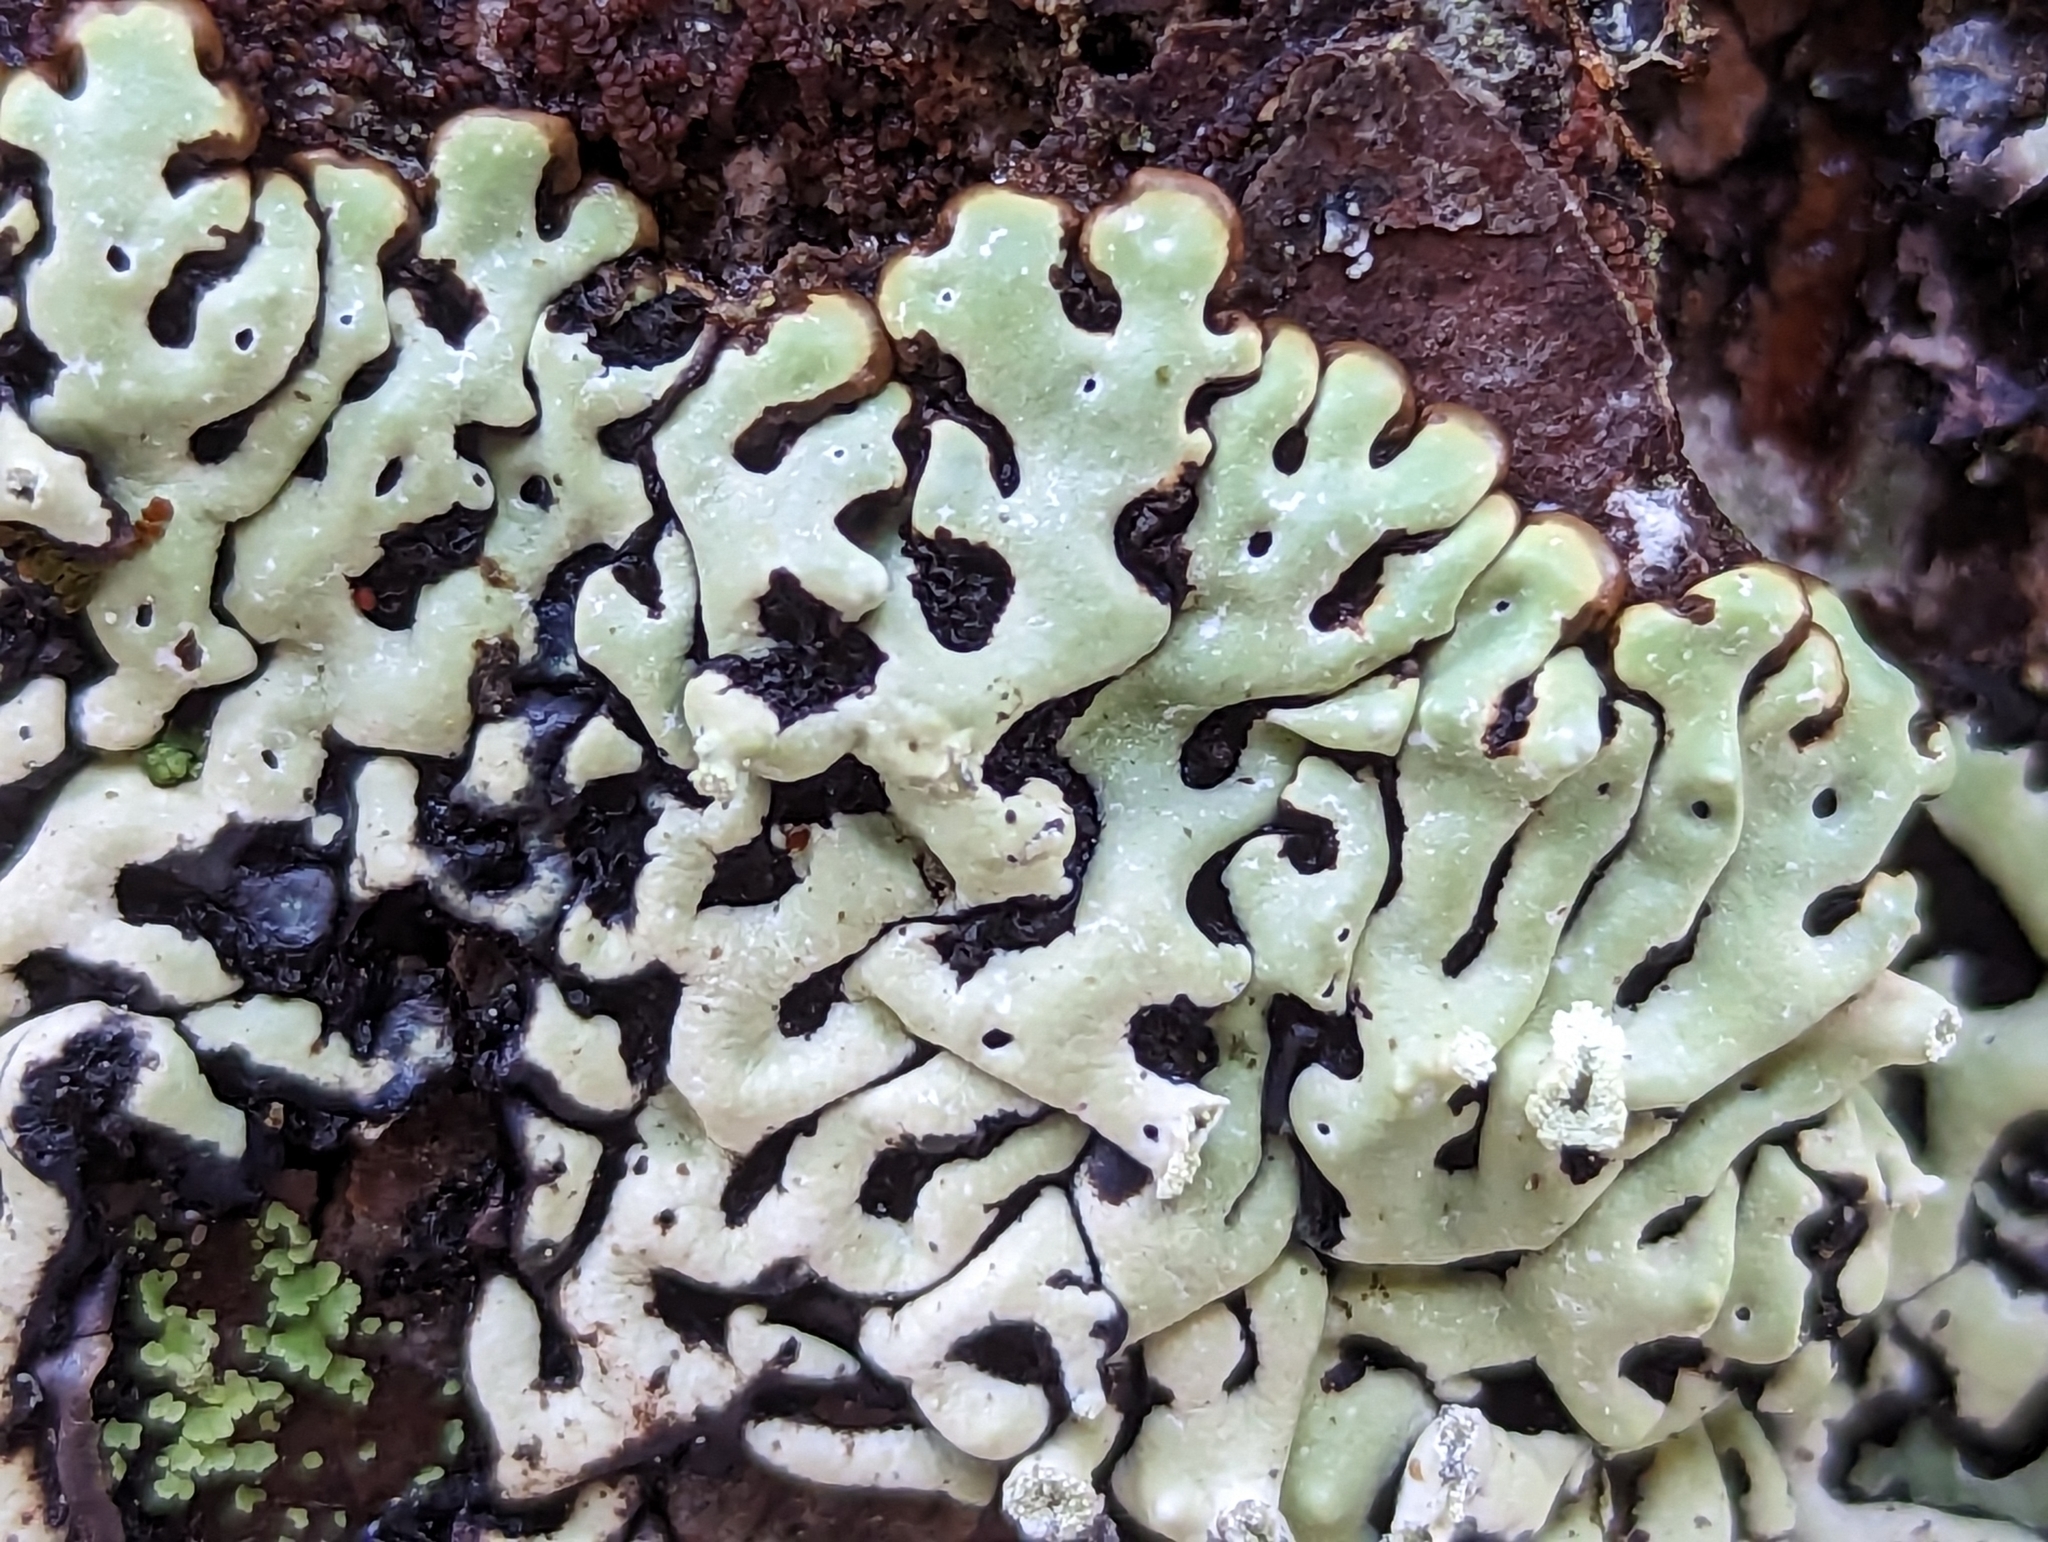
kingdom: Fungi
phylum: Ascomycota
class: Lecanoromycetes
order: Lecanorales
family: Parmeliaceae
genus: Menegazzia
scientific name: Menegazzia terebrata
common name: Magic treeflute lichen
